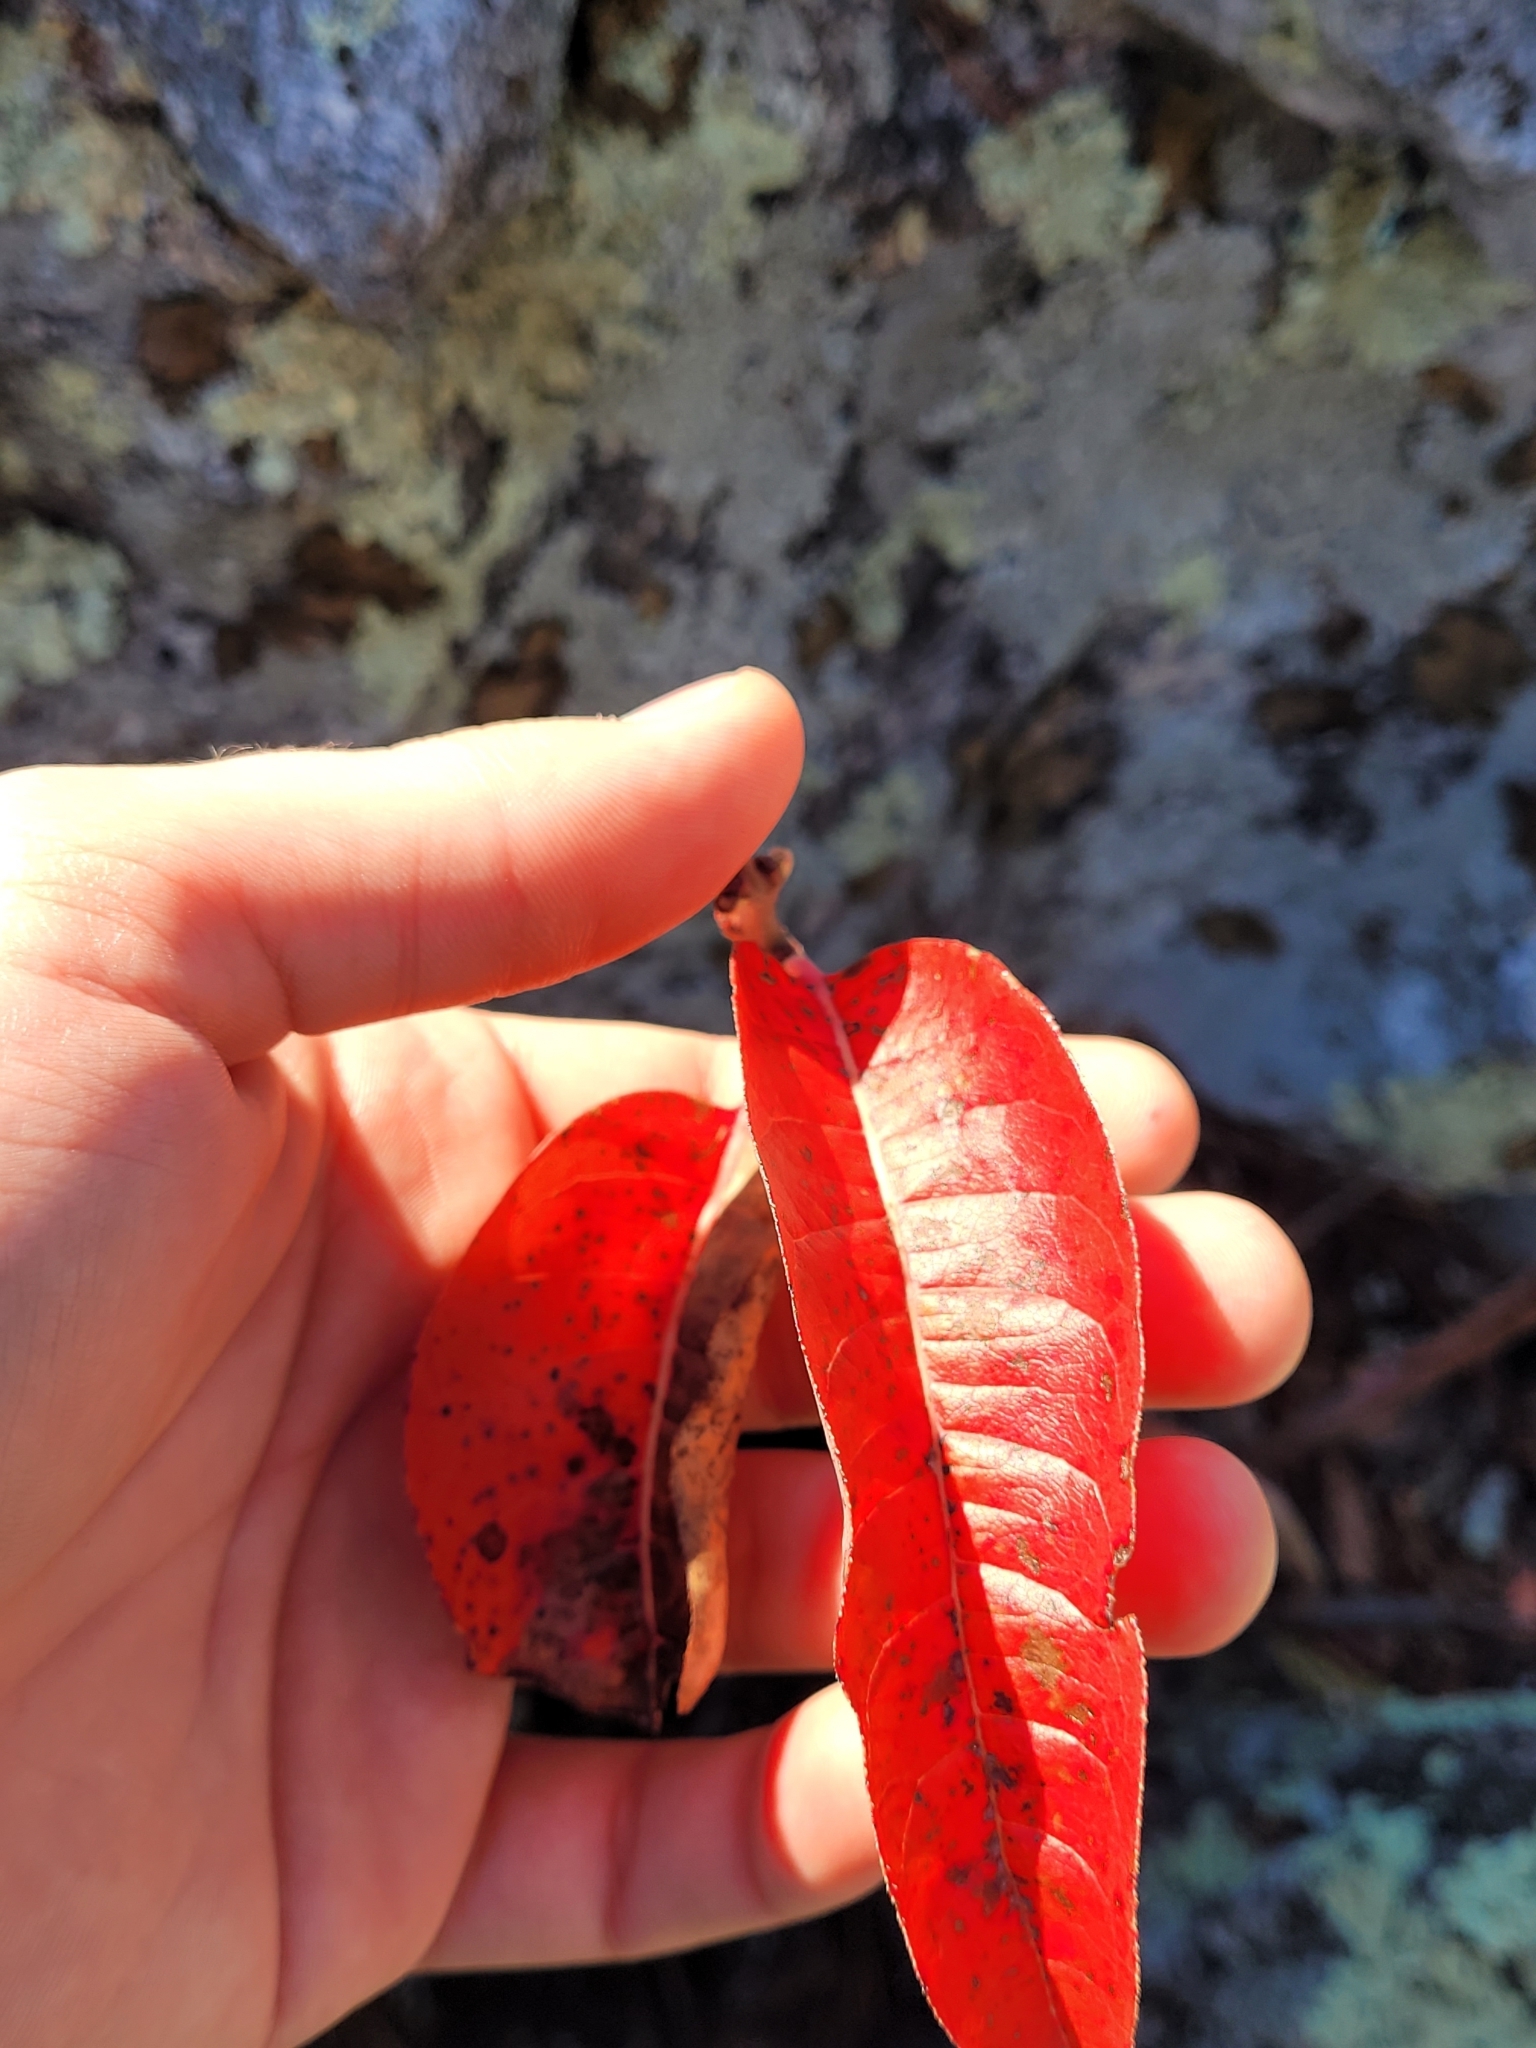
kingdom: Plantae
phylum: Tracheophyta
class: Magnoliopsida
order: Ericales
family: Ericaceae
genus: Oxydendrum
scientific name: Oxydendrum arboreum
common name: Sourwood
